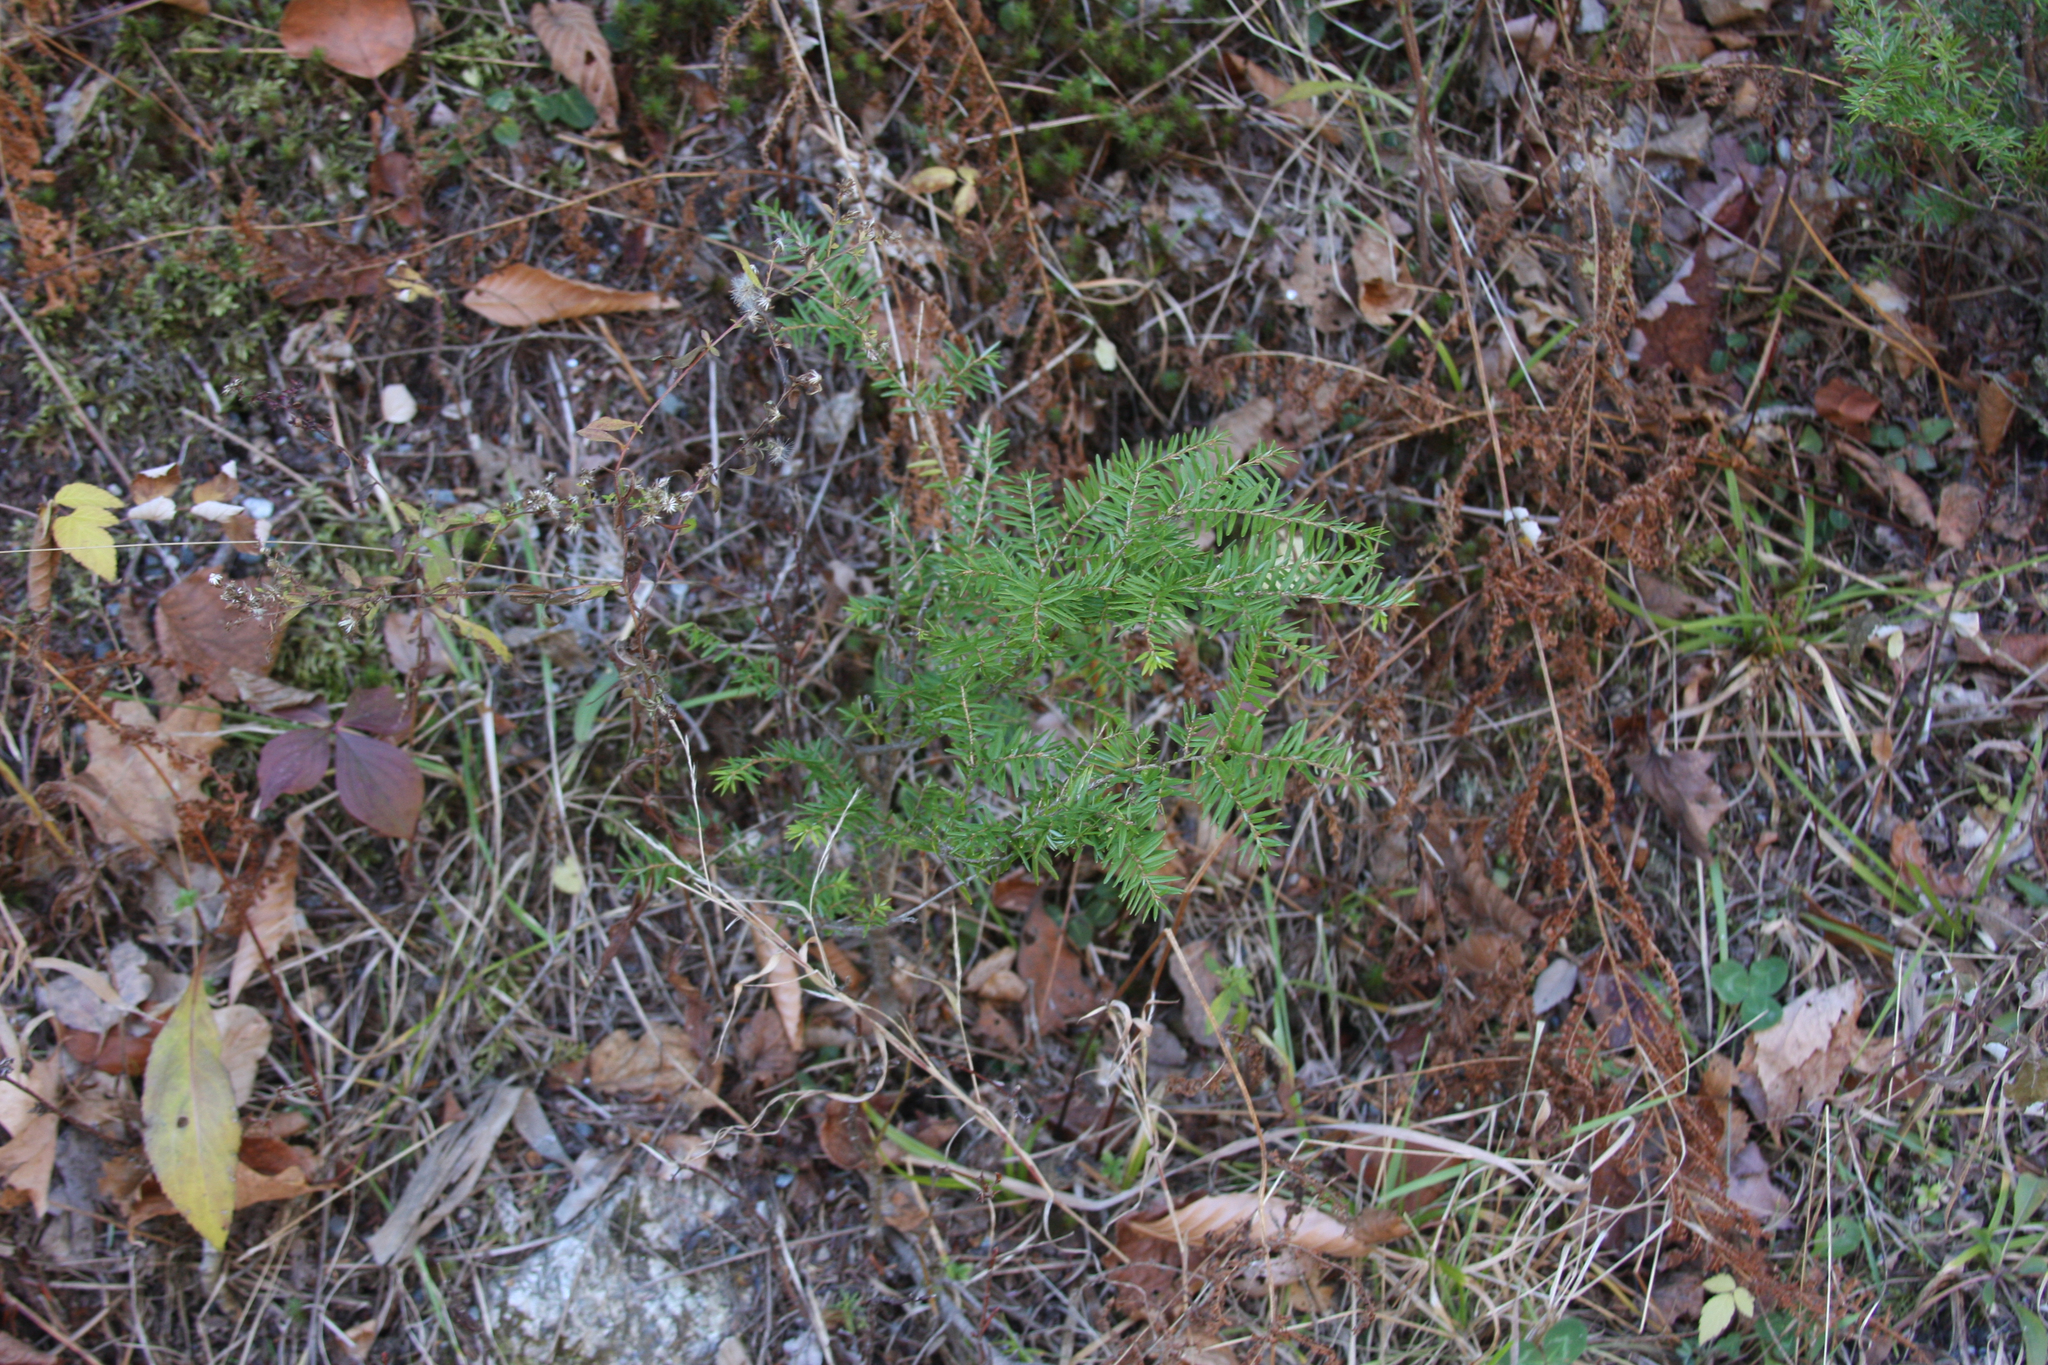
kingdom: Plantae
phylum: Tracheophyta
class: Pinopsida
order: Pinales
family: Pinaceae
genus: Tsuga
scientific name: Tsuga canadensis
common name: Eastern hemlock
